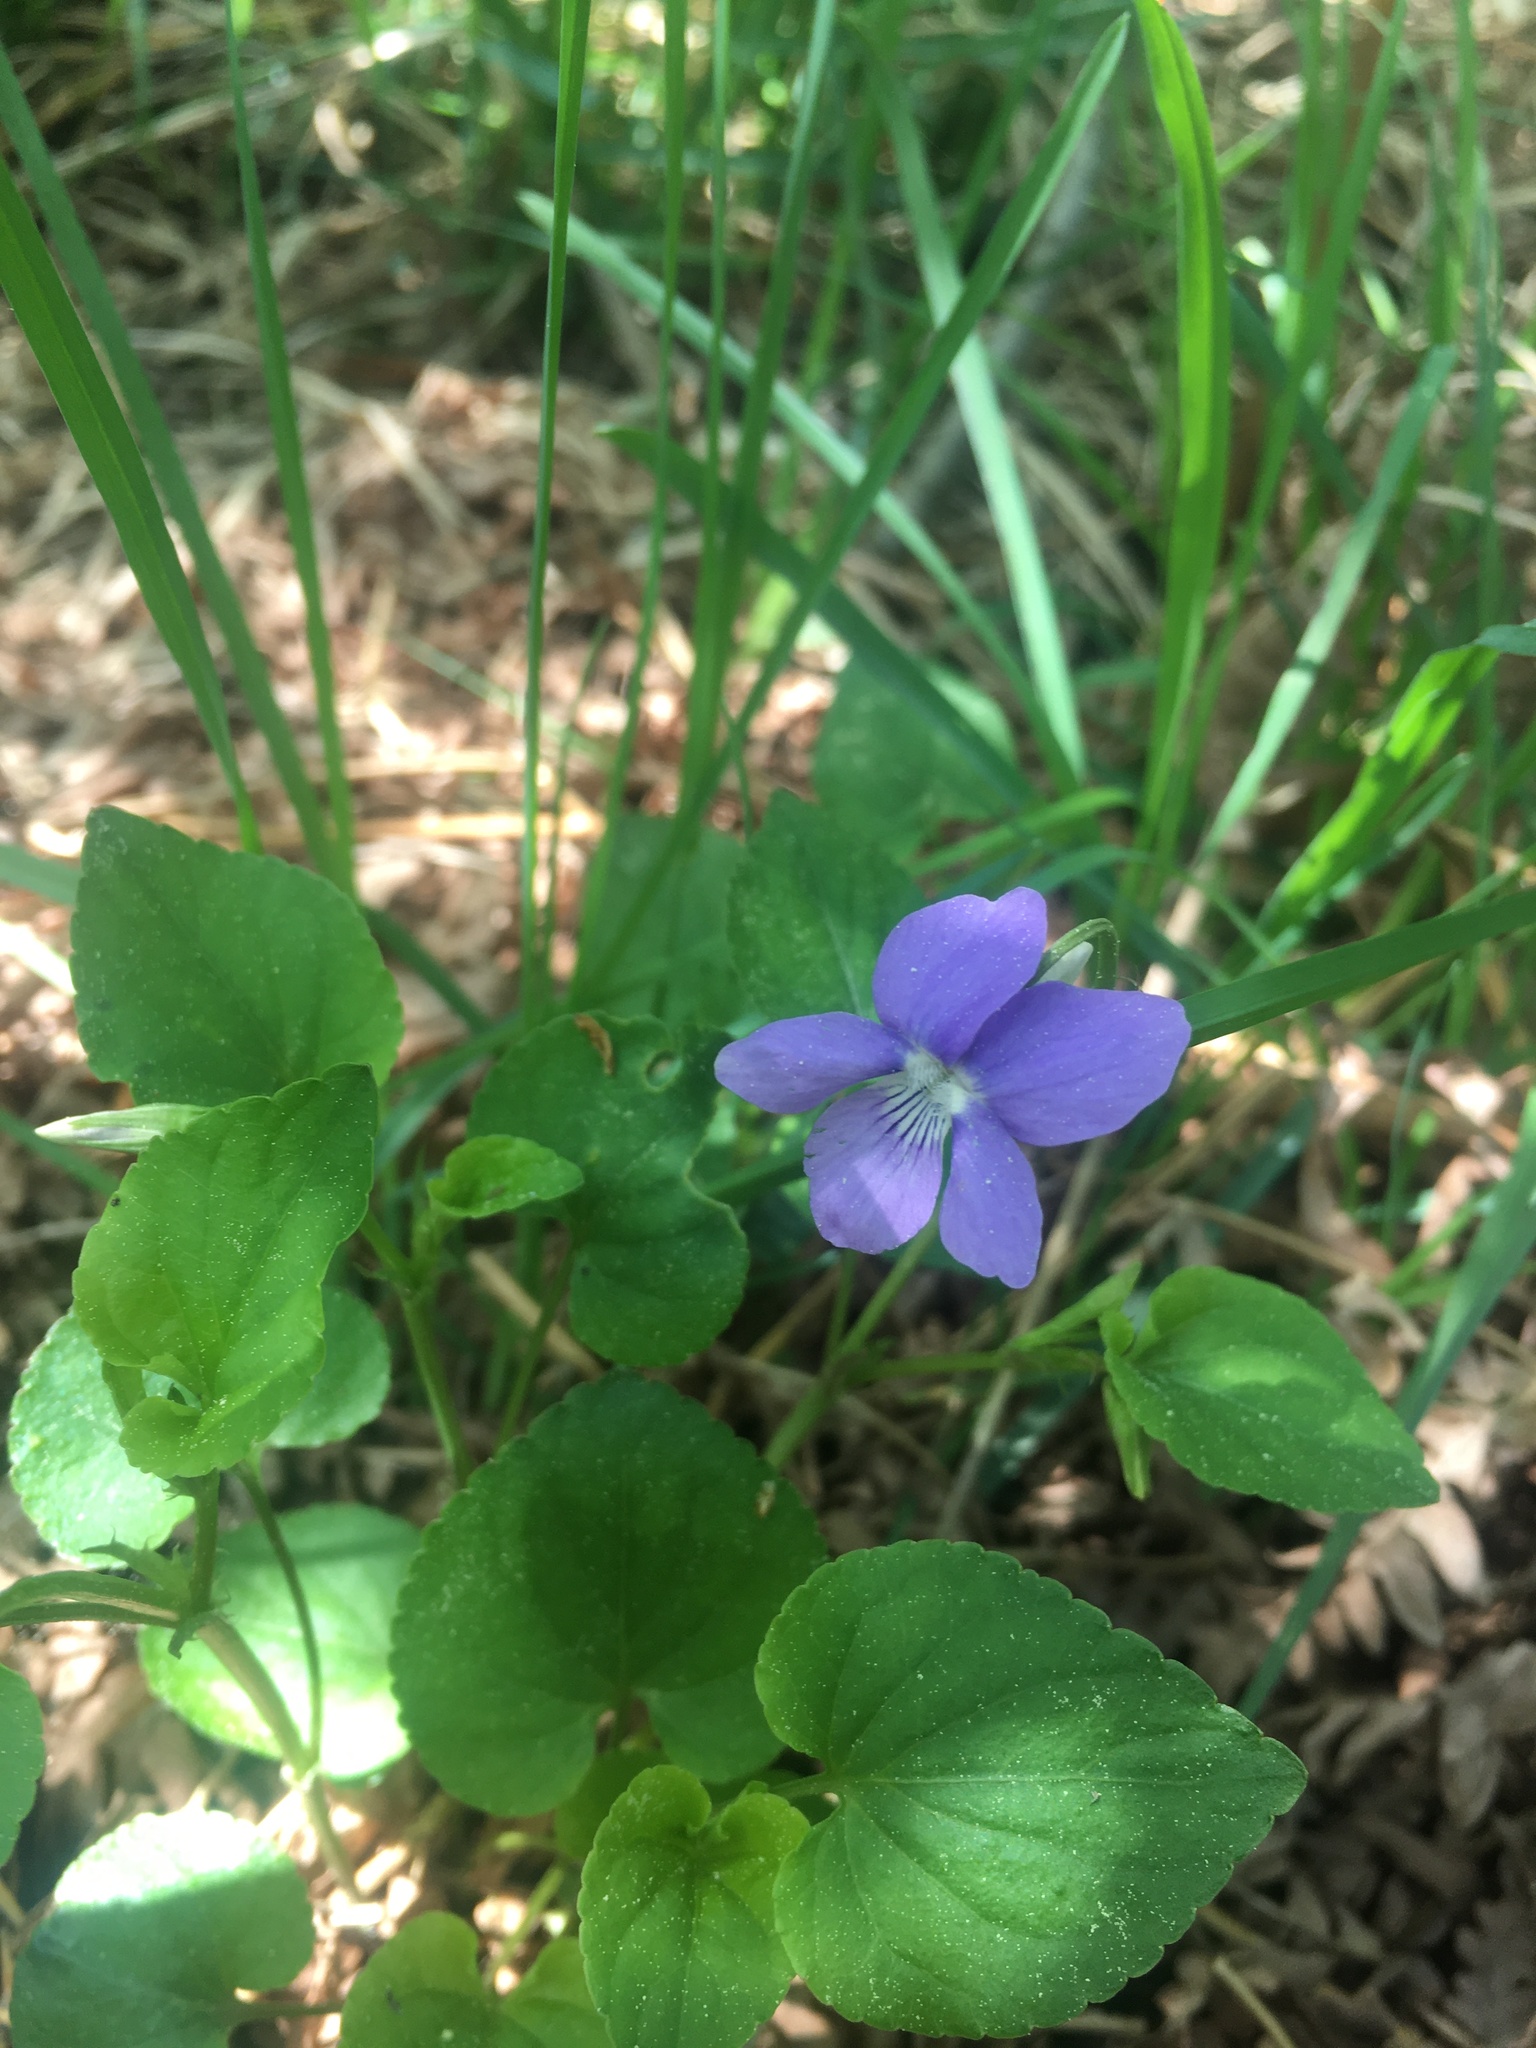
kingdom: Plantae
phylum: Tracheophyta
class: Magnoliopsida
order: Malpighiales
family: Violaceae
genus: Viola
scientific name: Viola riviniana
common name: Common dog-violet
